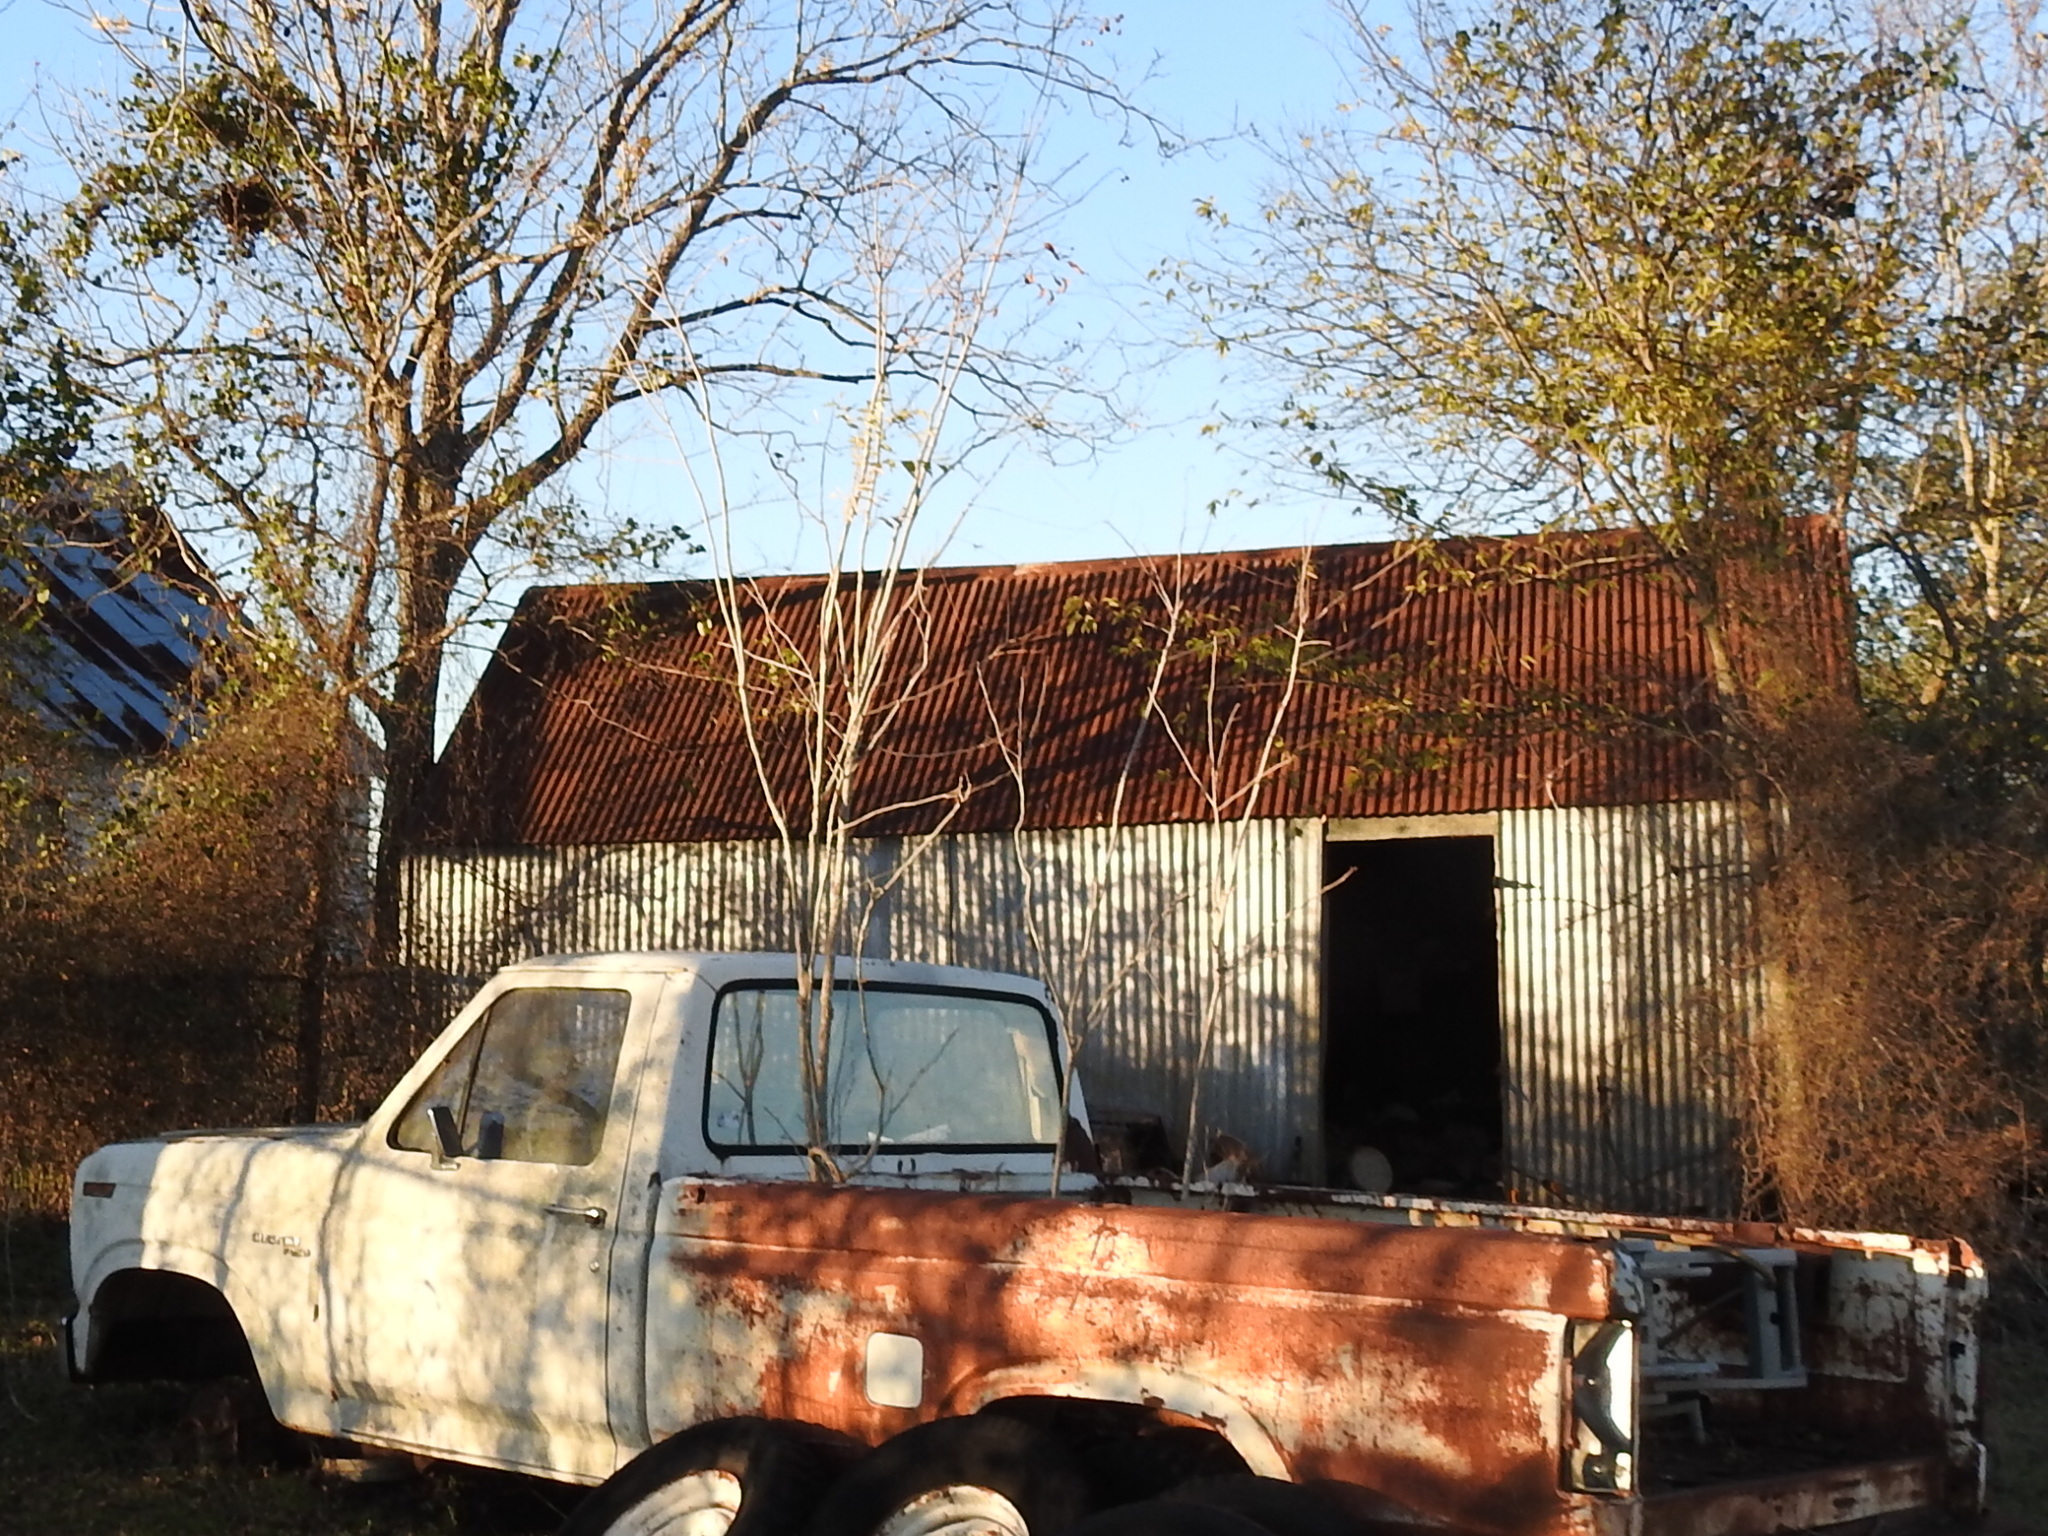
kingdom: Plantae
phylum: Tracheophyta
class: Magnoliopsida
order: Sapindales
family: Sapindaceae
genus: Sapindus
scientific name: Sapindus drummondii
